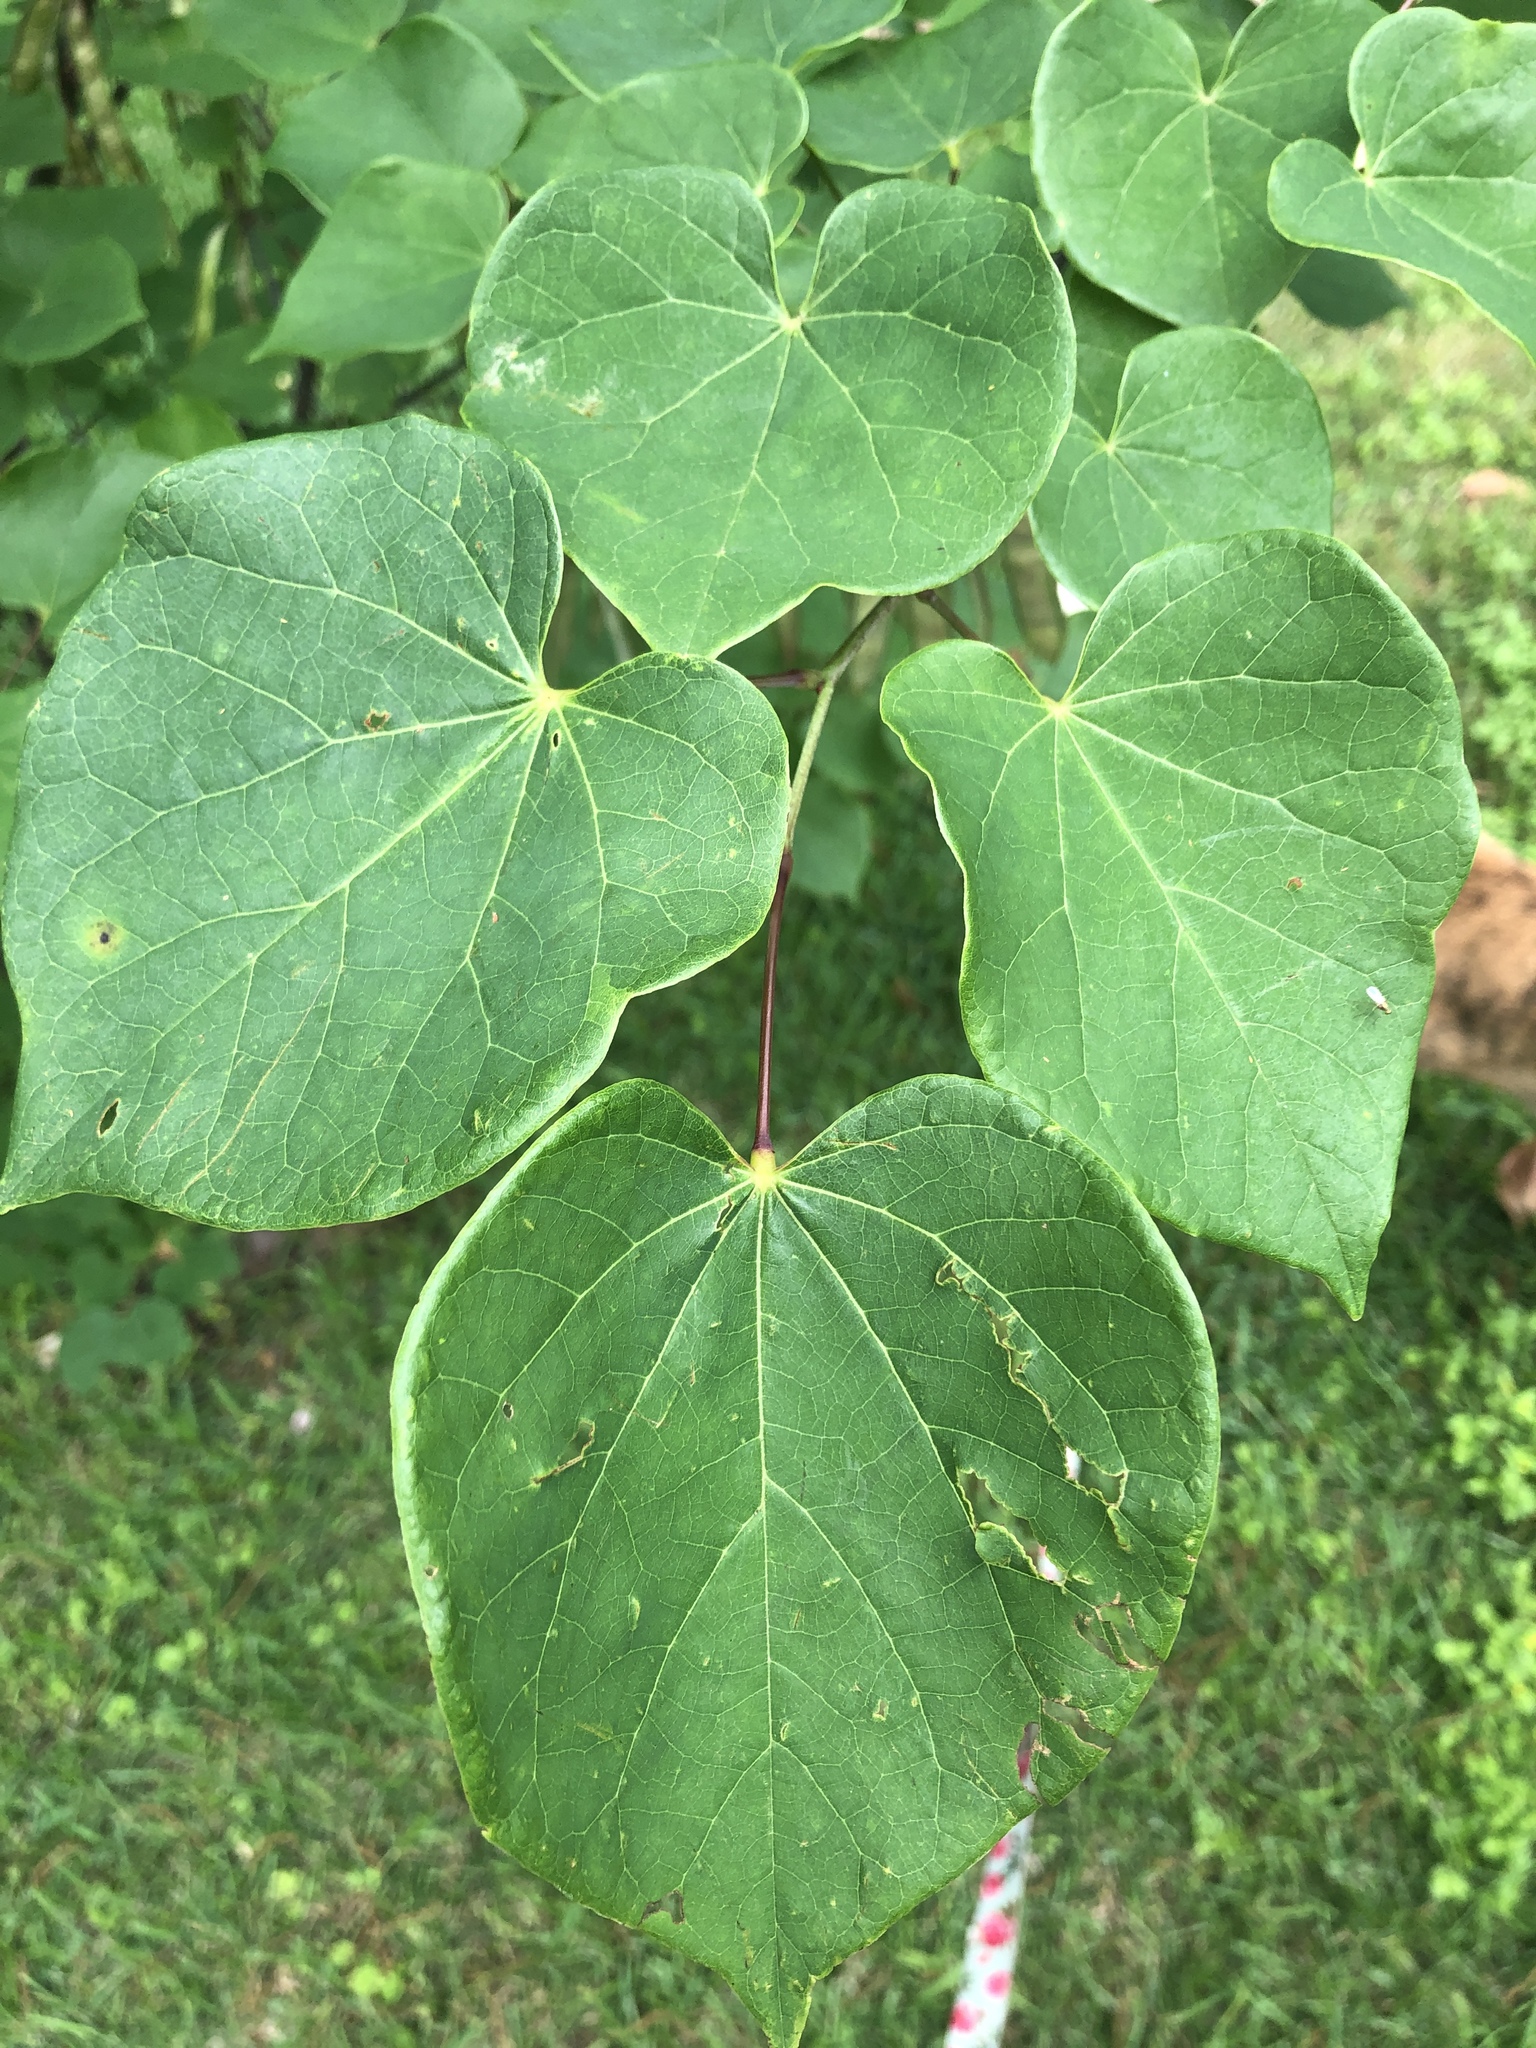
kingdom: Plantae
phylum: Tracheophyta
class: Magnoliopsida
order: Fabales
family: Fabaceae
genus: Cercis
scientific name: Cercis canadensis
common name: Eastern redbud
